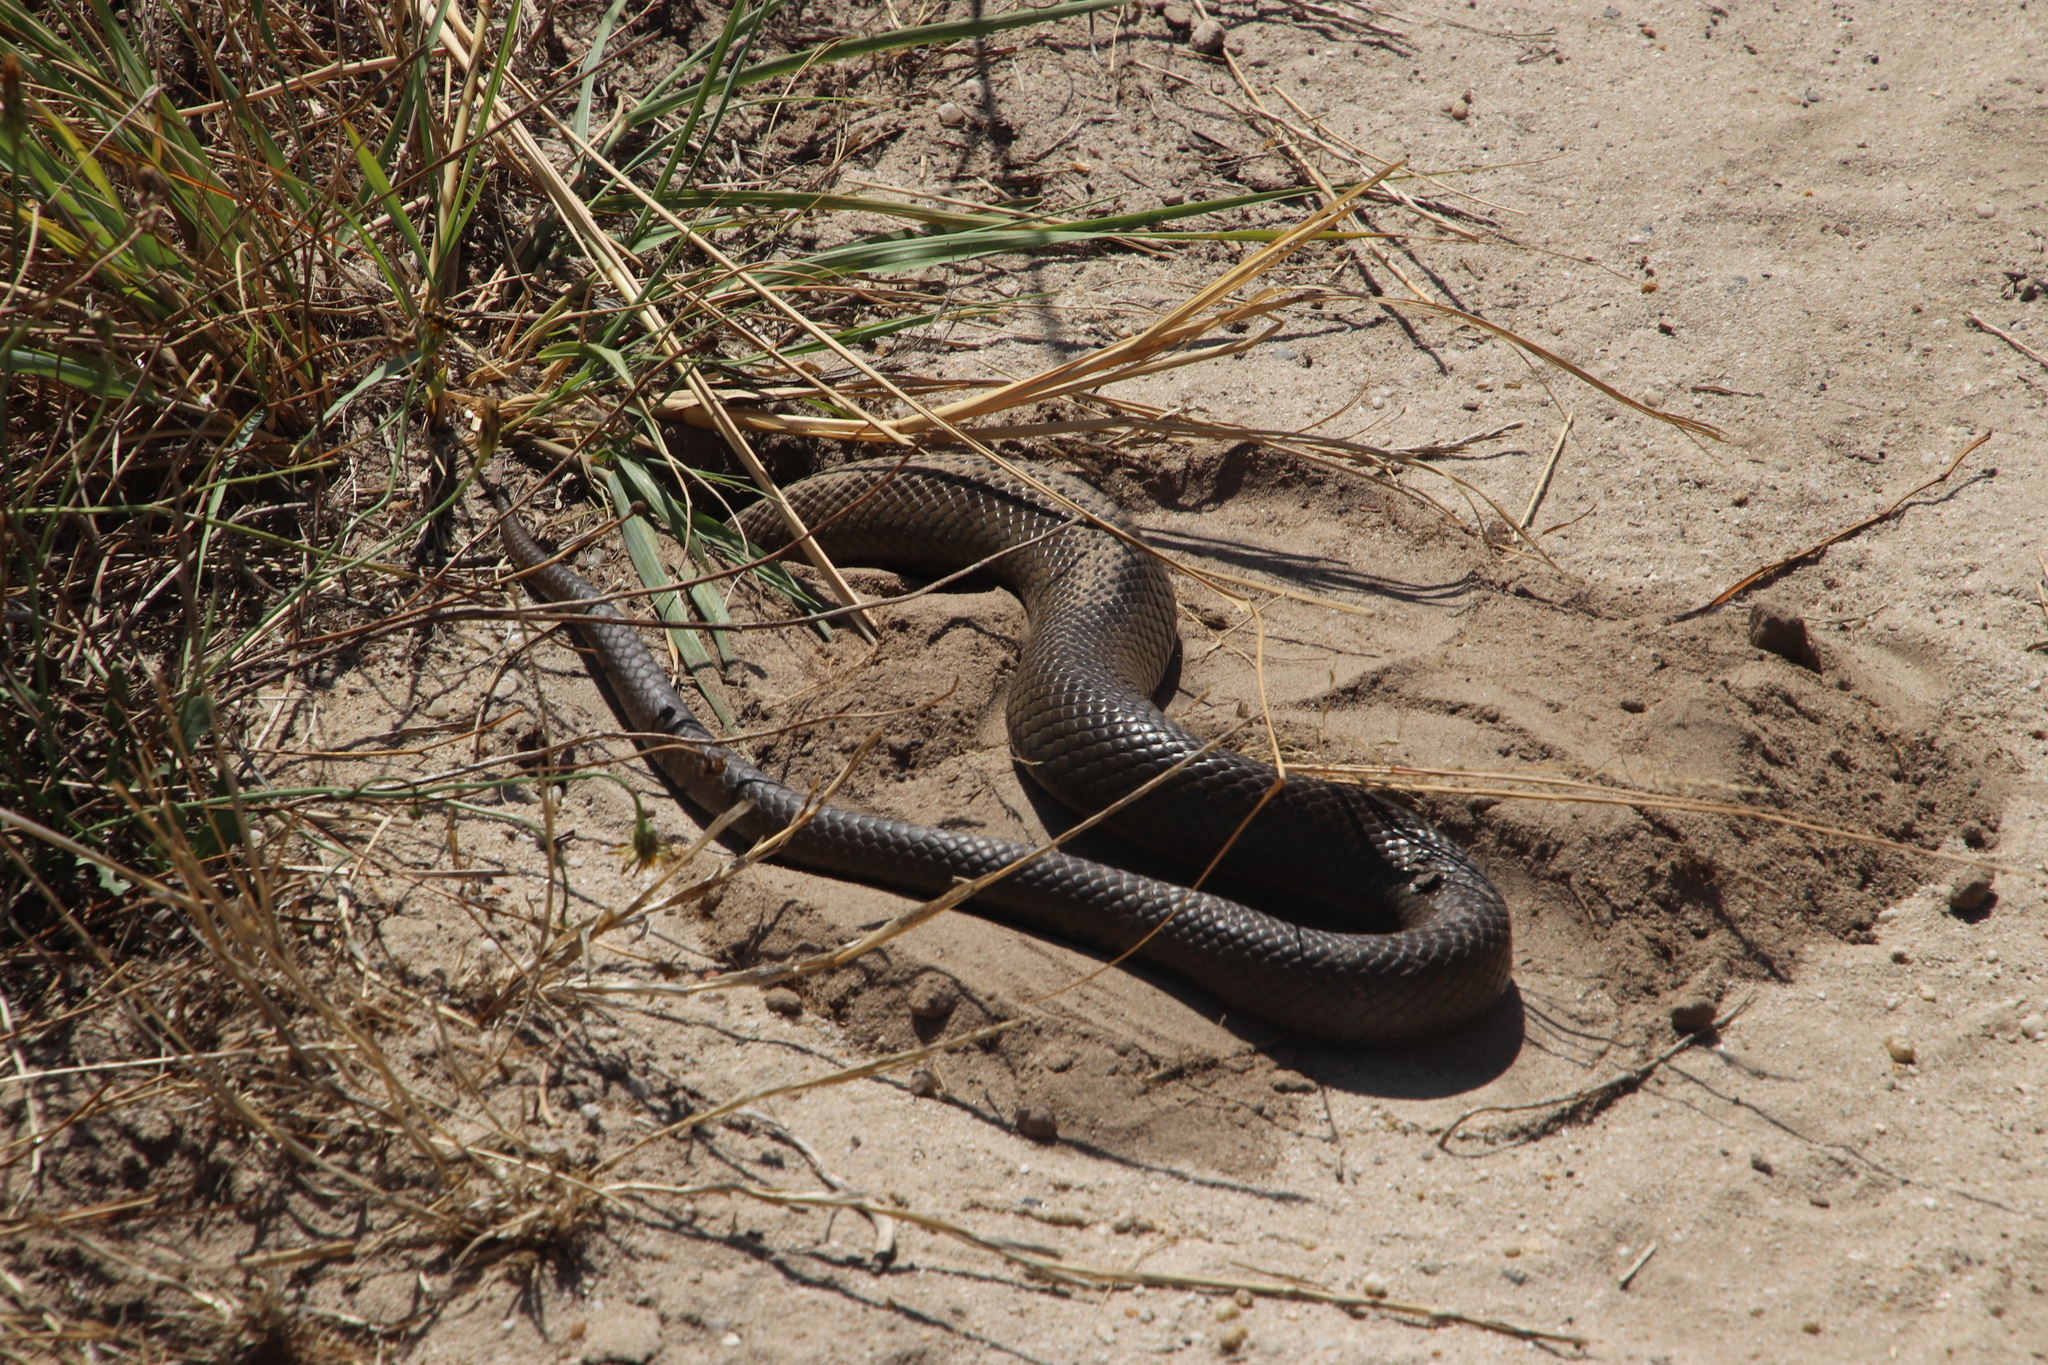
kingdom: Animalia
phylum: Chordata
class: Squamata
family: Pseudaspididae
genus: Pseudaspis
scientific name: Pseudaspis cana
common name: Mole snake
